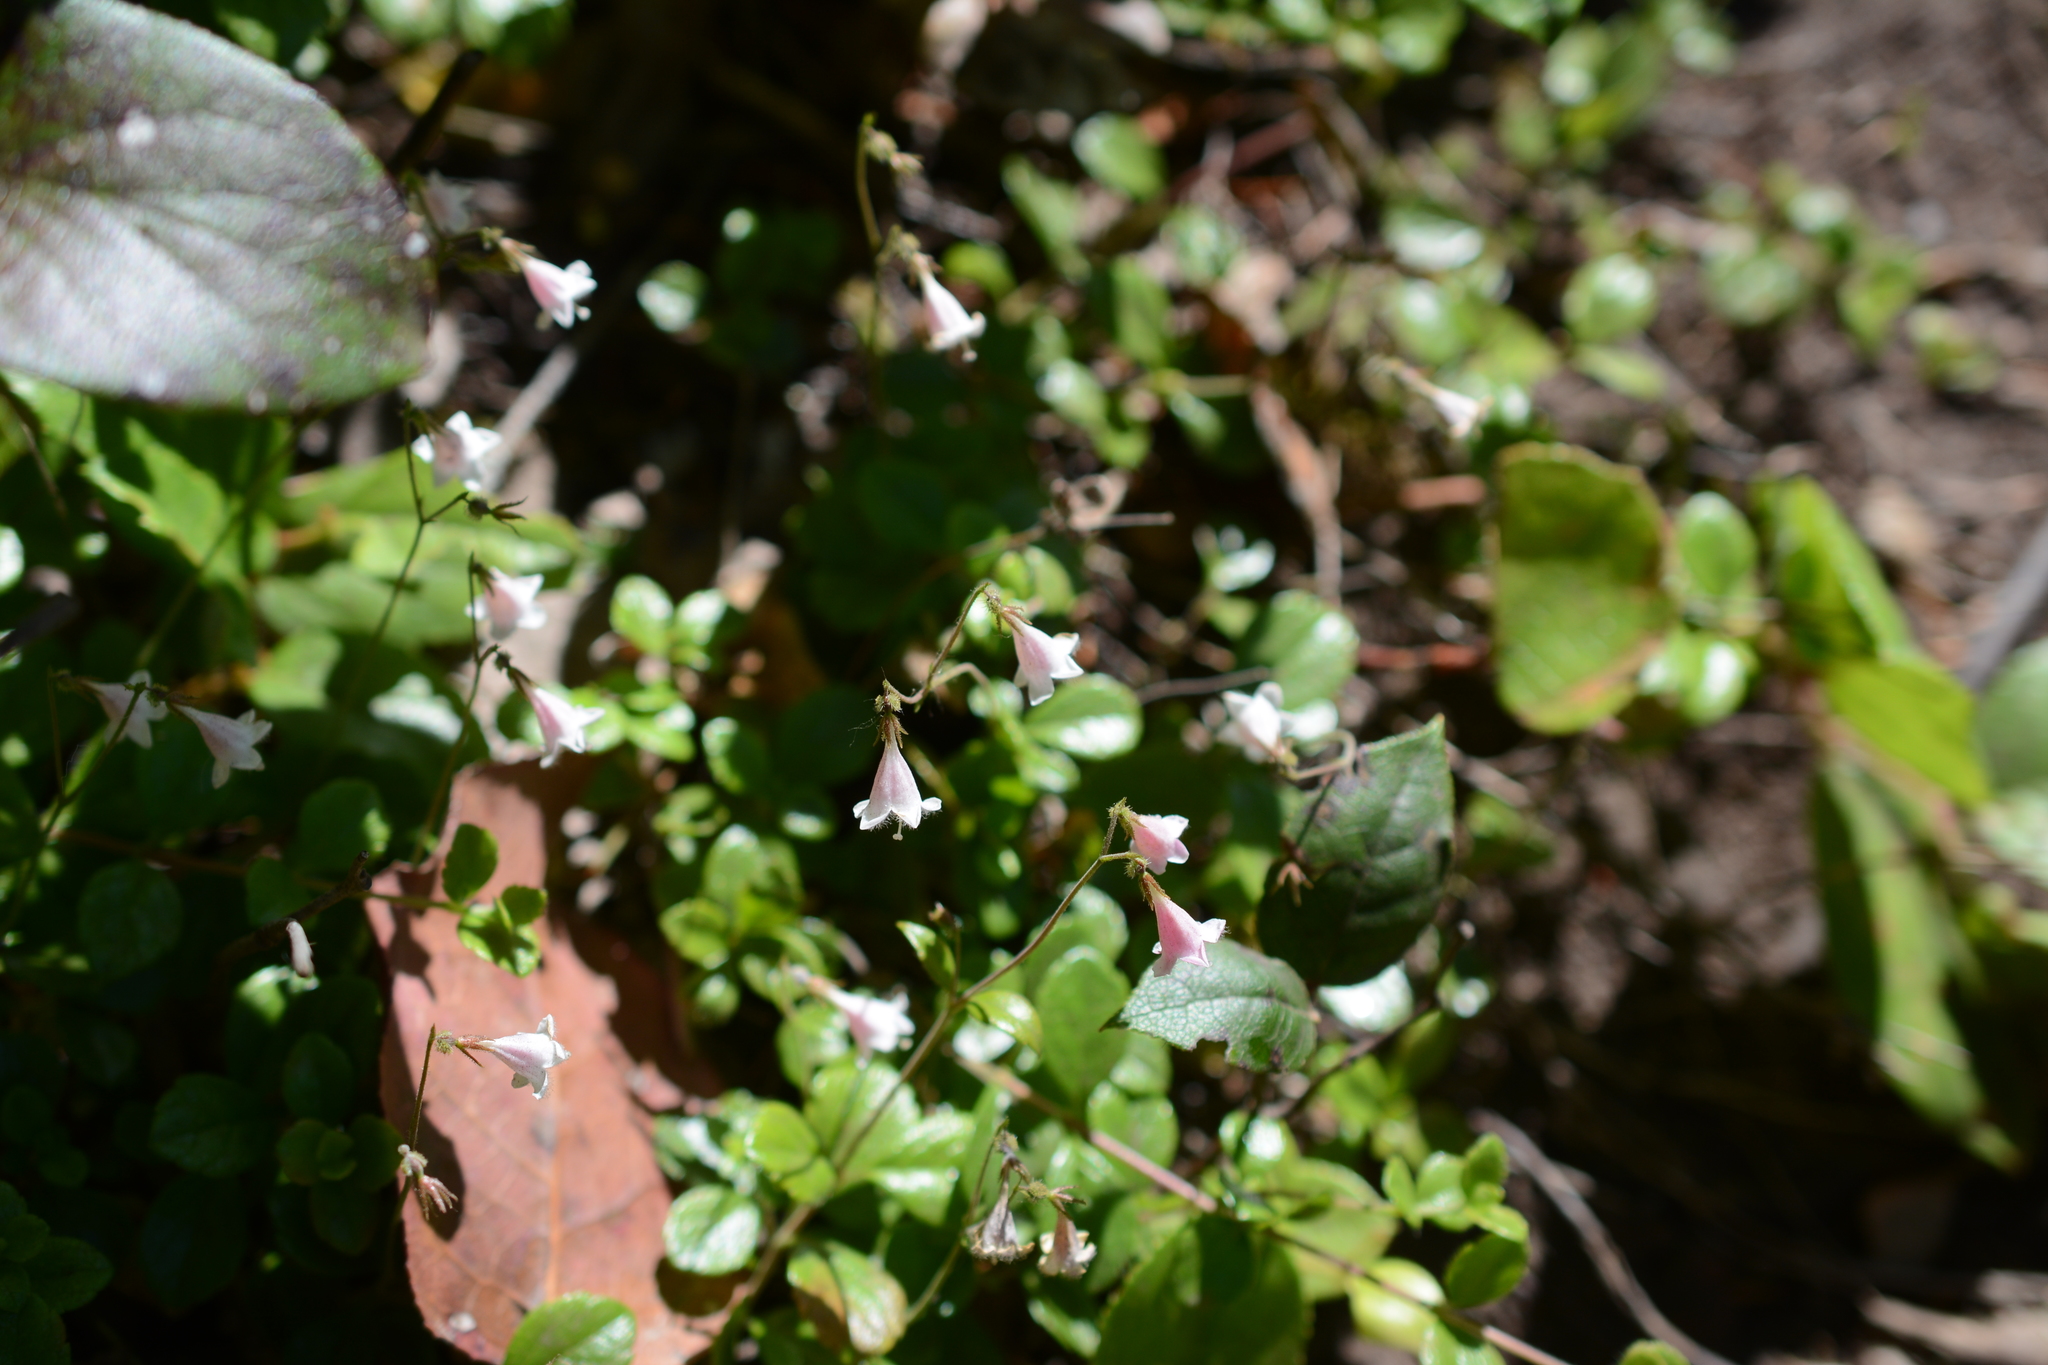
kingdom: Plantae
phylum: Tracheophyta
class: Magnoliopsida
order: Dipsacales
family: Caprifoliaceae
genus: Linnaea
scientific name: Linnaea borealis
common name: Twinflower
